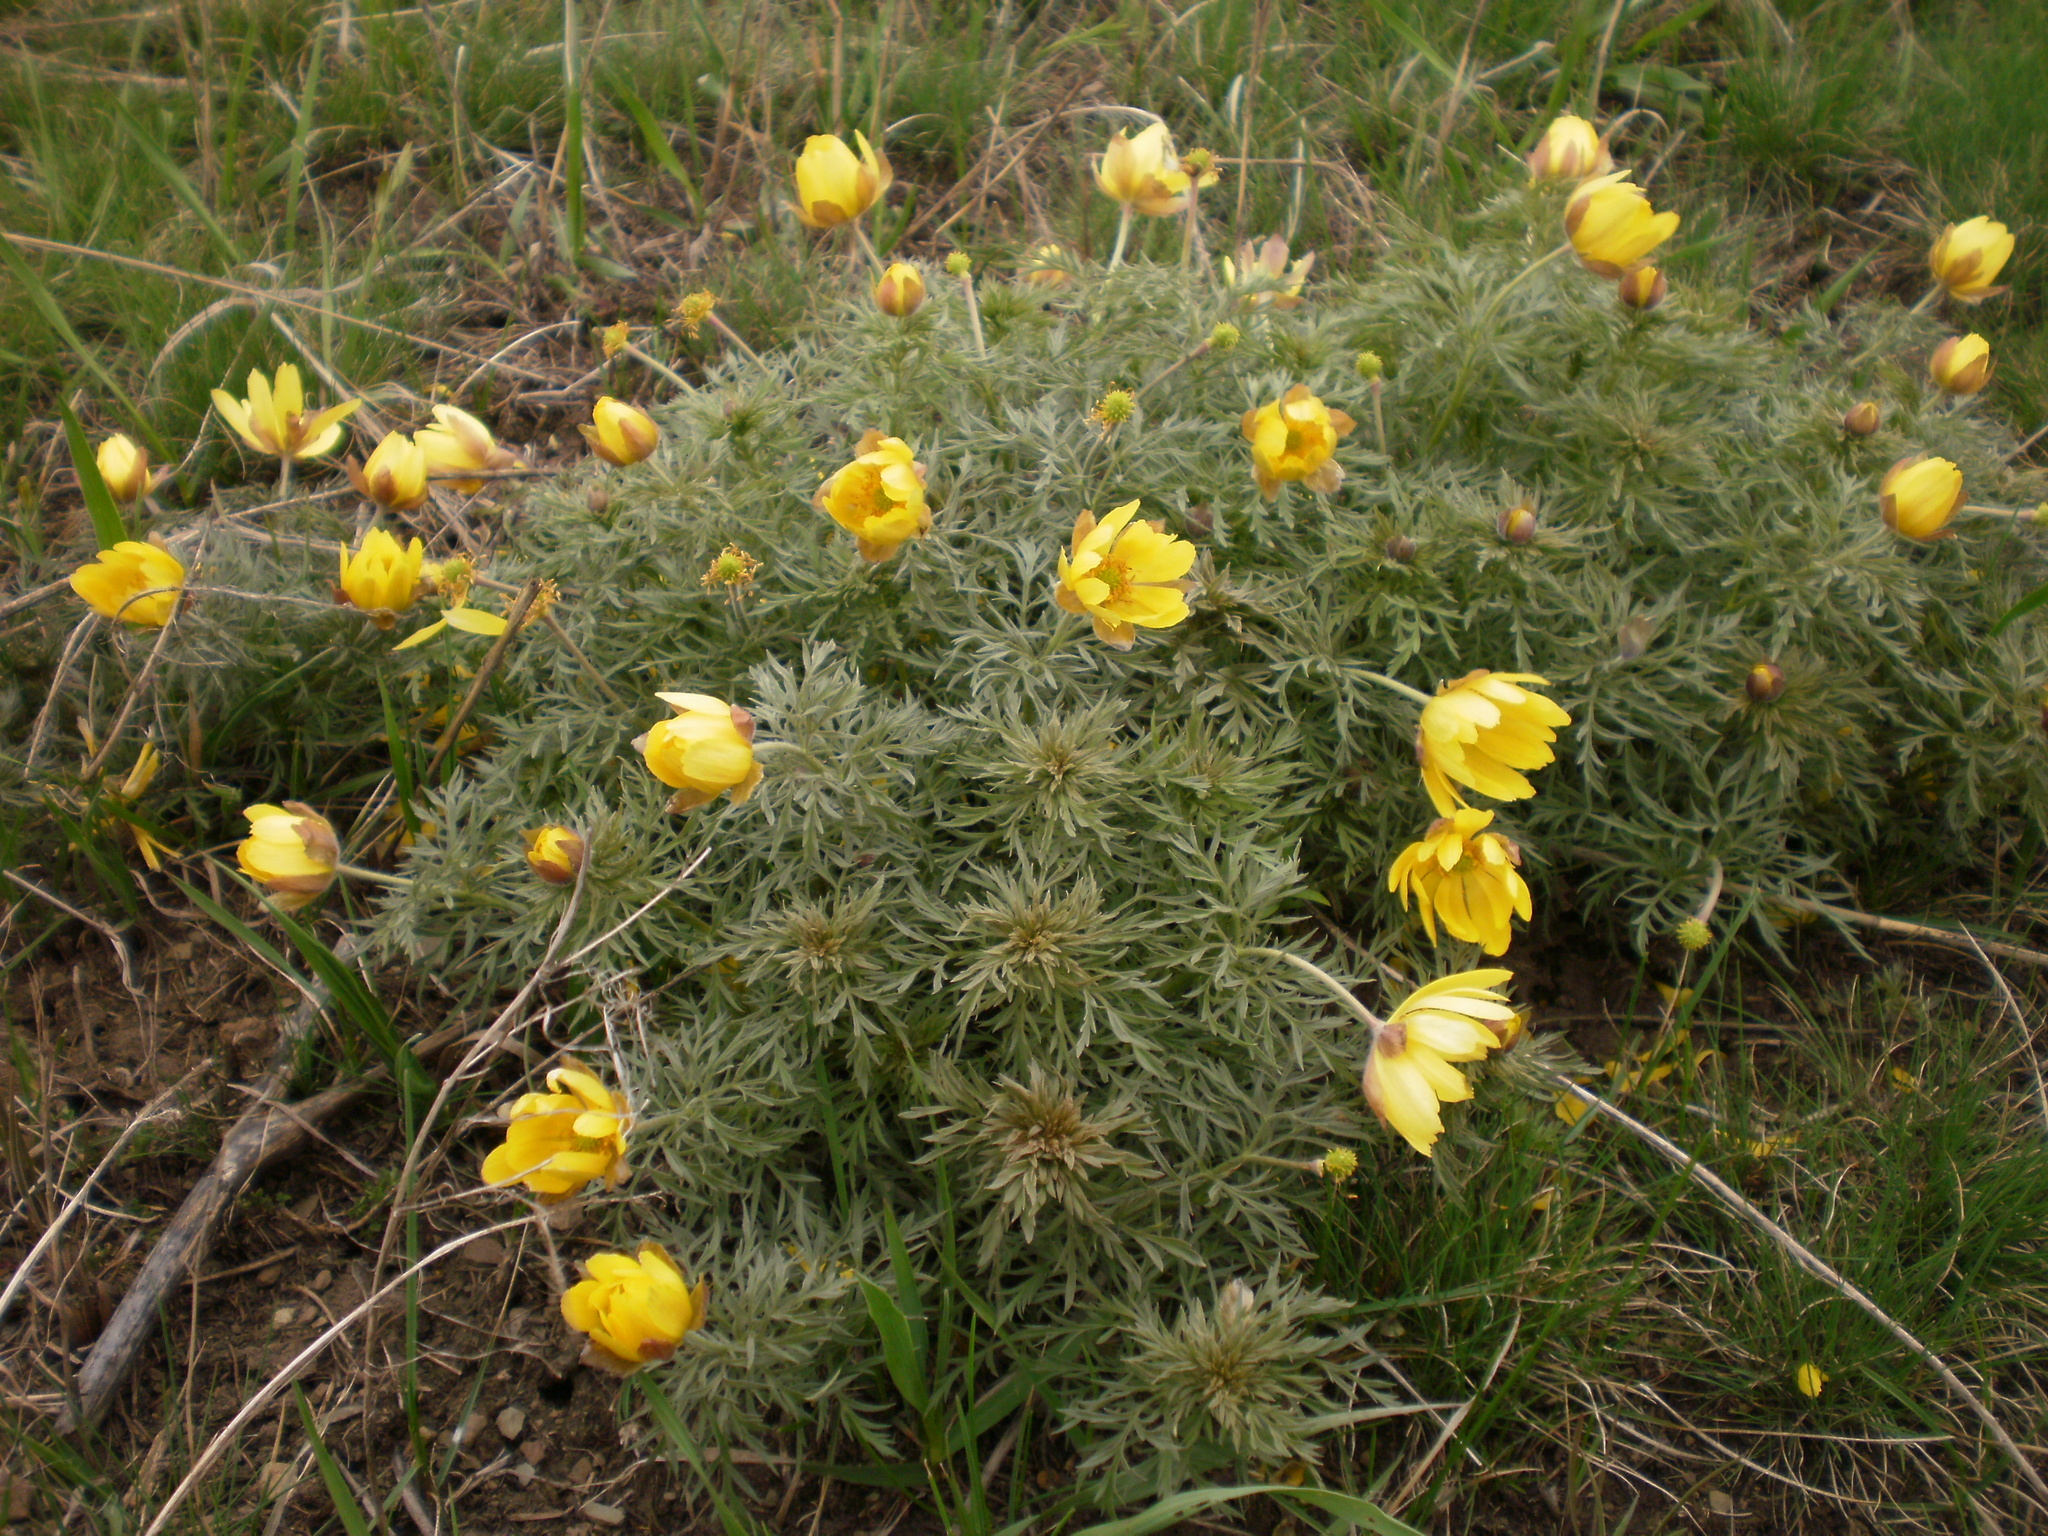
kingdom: Plantae
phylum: Tracheophyta
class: Magnoliopsida
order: Ranunculales
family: Ranunculaceae
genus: Adonis
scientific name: Adonis volgensis
